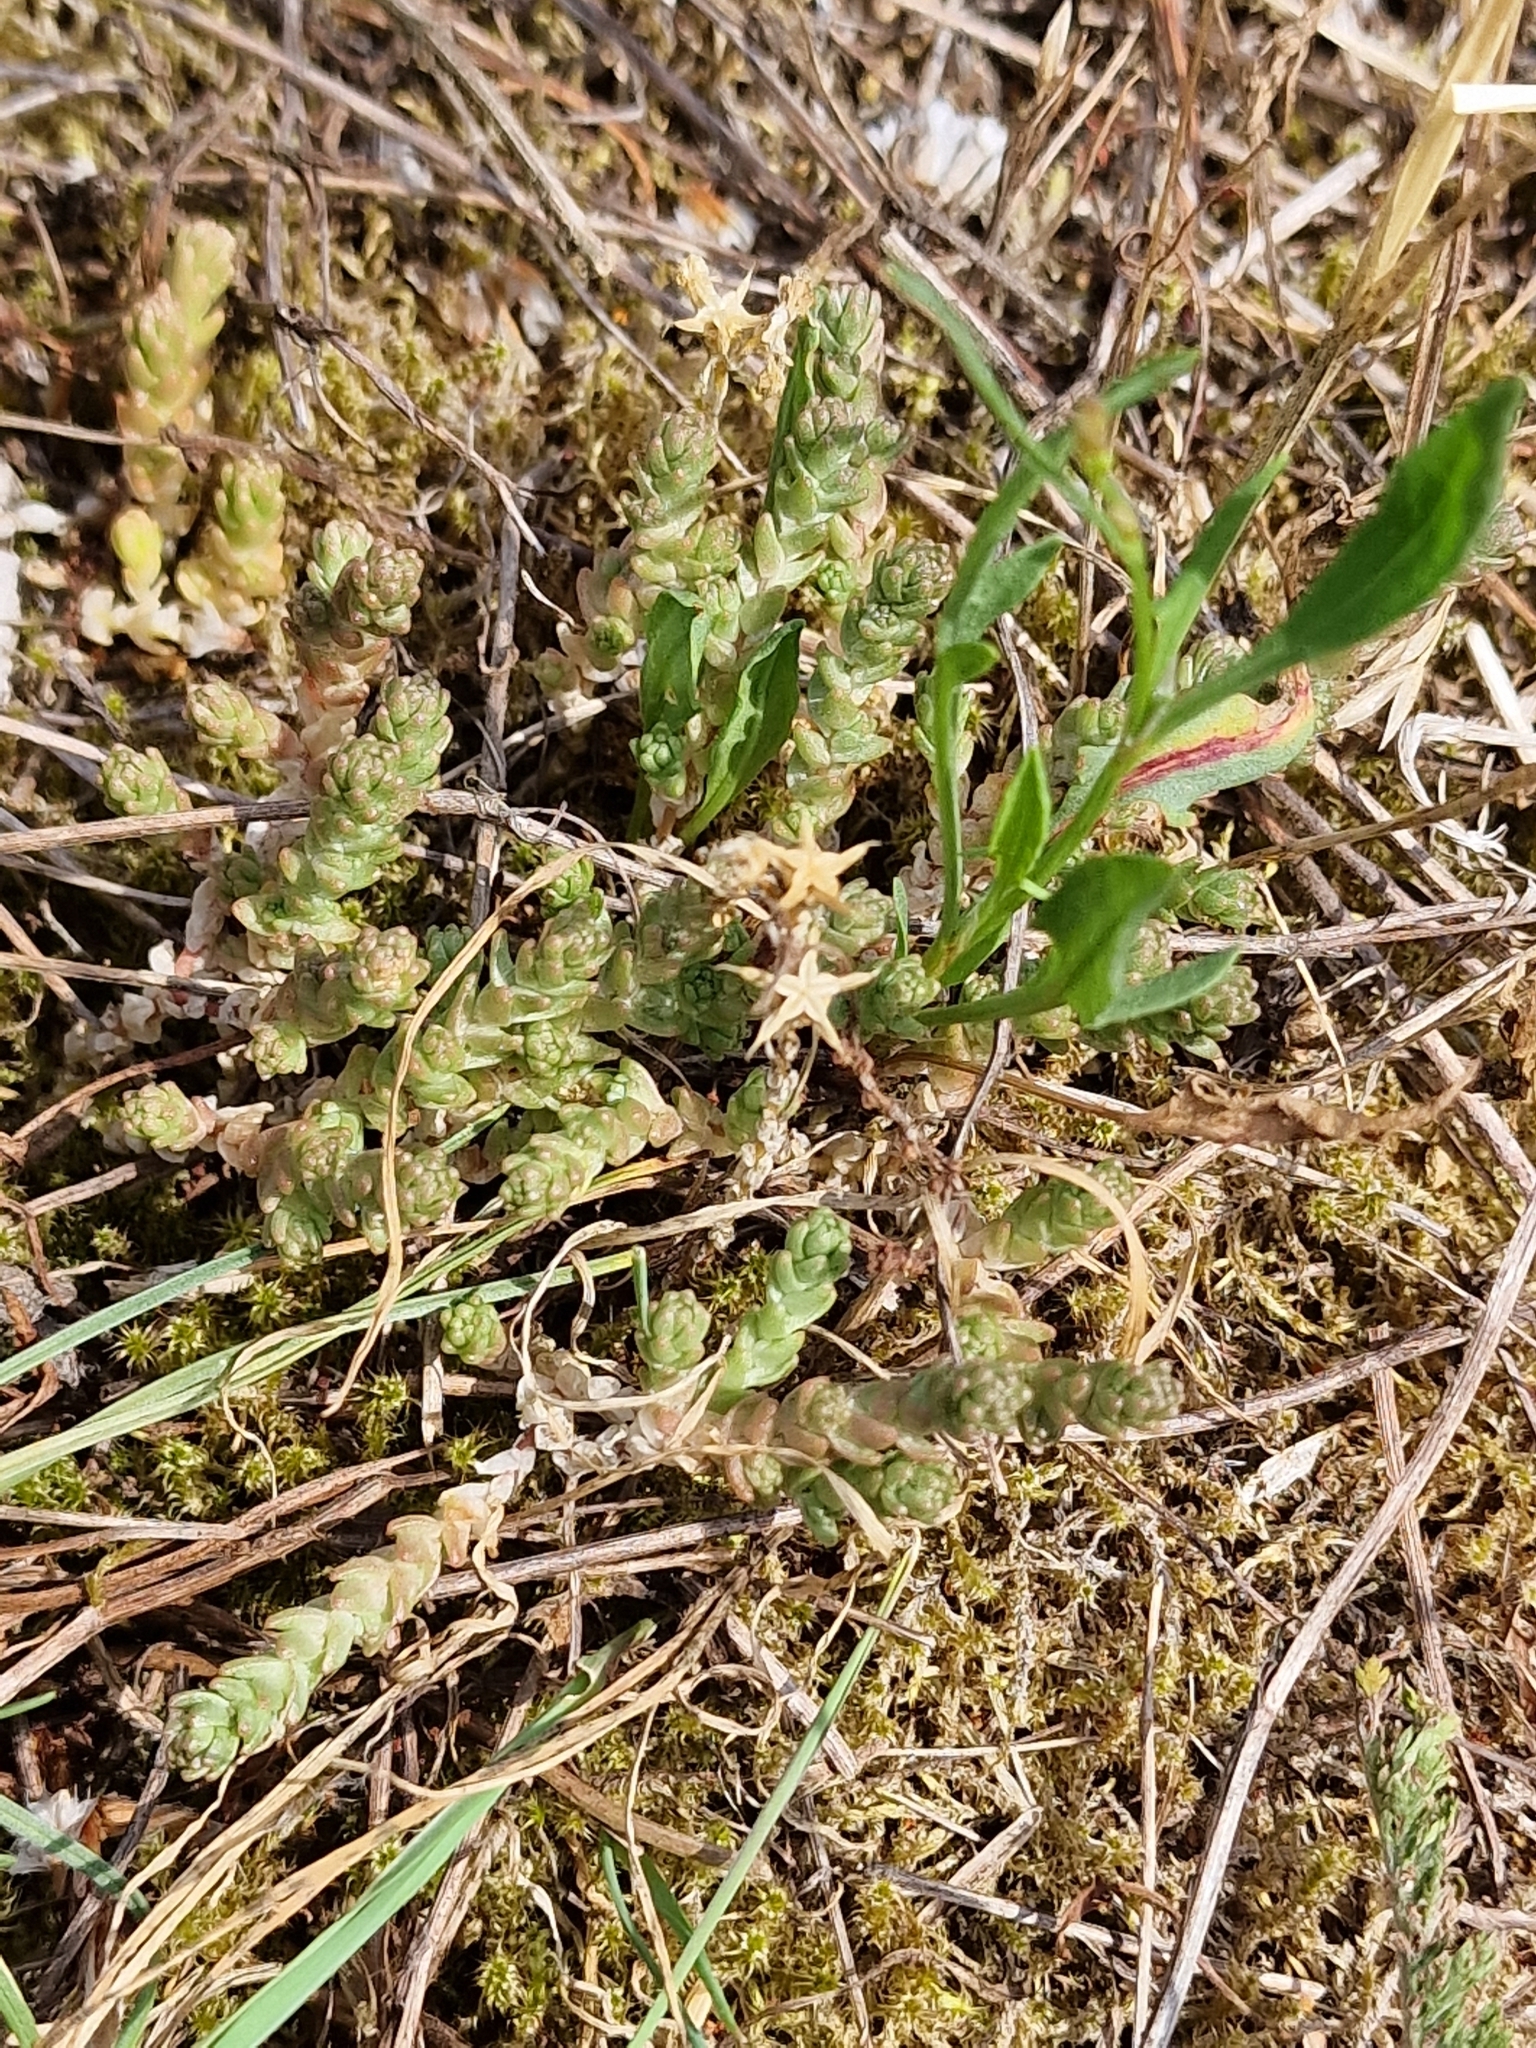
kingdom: Plantae
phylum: Tracheophyta
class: Magnoliopsida
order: Saxifragales
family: Crassulaceae
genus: Sedum
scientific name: Sedum acre
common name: Biting stonecrop
